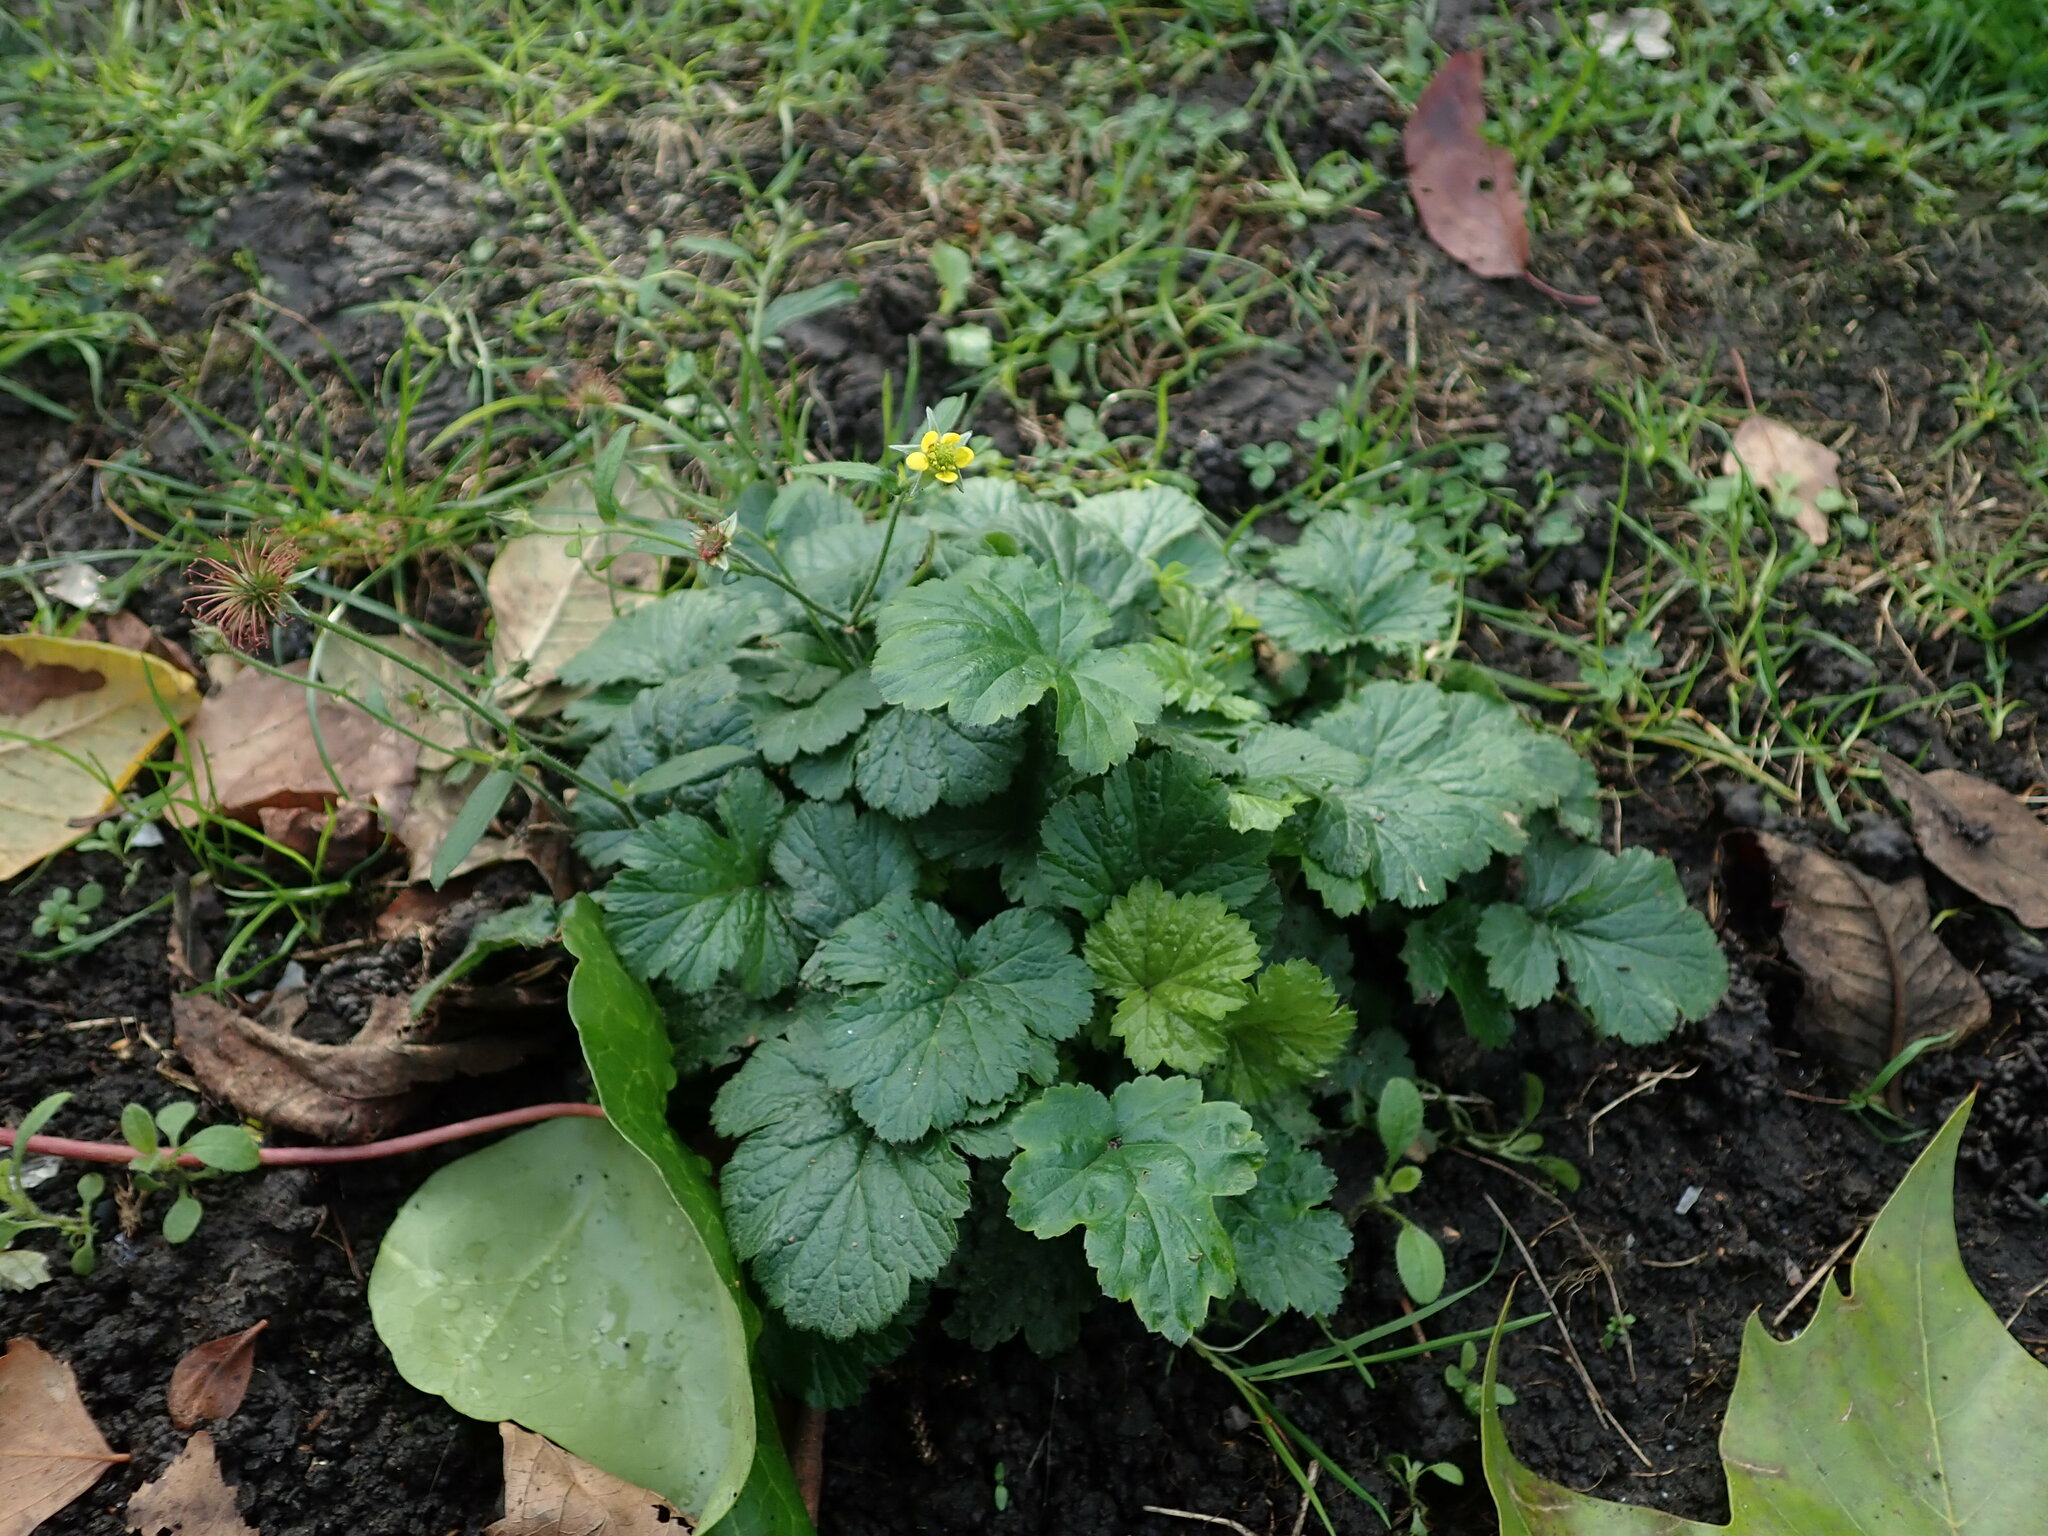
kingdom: Plantae
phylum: Tracheophyta
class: Magnoliopsida
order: Rosales
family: Rosaceae
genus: Geum
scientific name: Geum urbanum
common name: Wood avens
